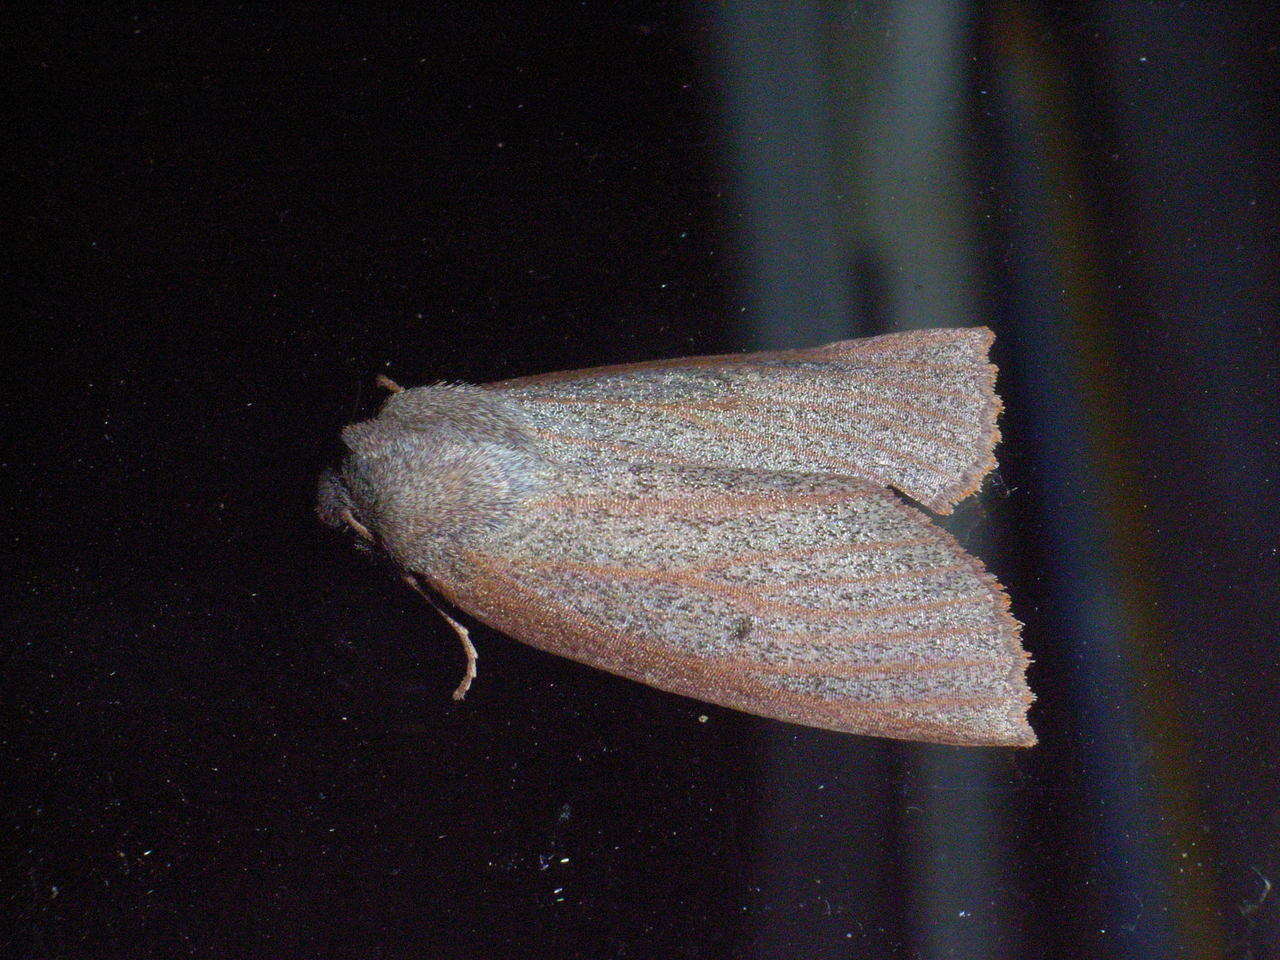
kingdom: Animalia
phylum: Arthropoda
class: Insecta
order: Lepidoptera
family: Geometridae
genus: Paralaea
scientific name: Paralaea porphyrinaria
